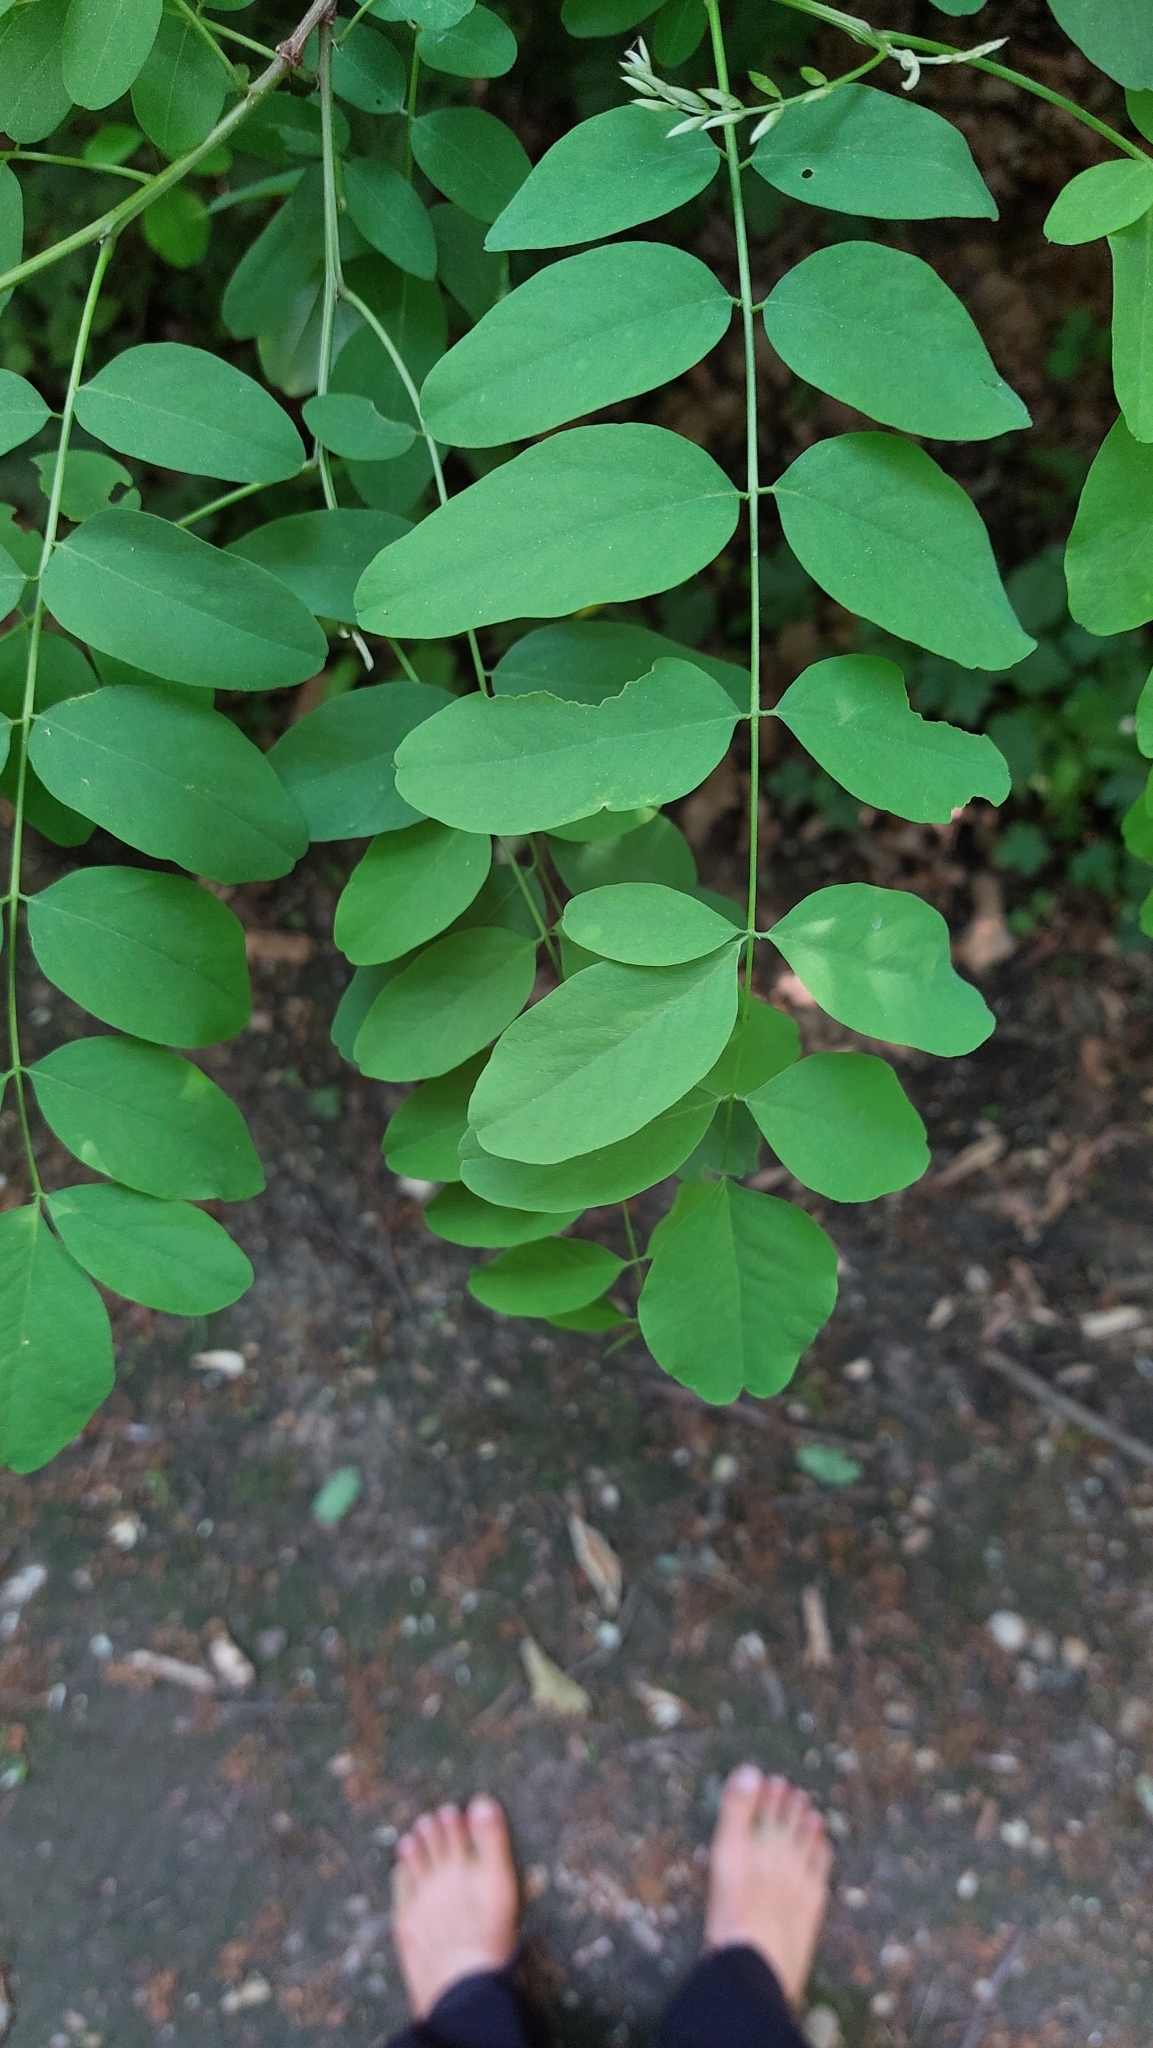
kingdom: Plantae
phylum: Tracheophyta
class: Magnoliopsida
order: Fabales
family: Fabaceae
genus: Robinia
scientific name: Robinia pseudoacacia
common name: Black locust
